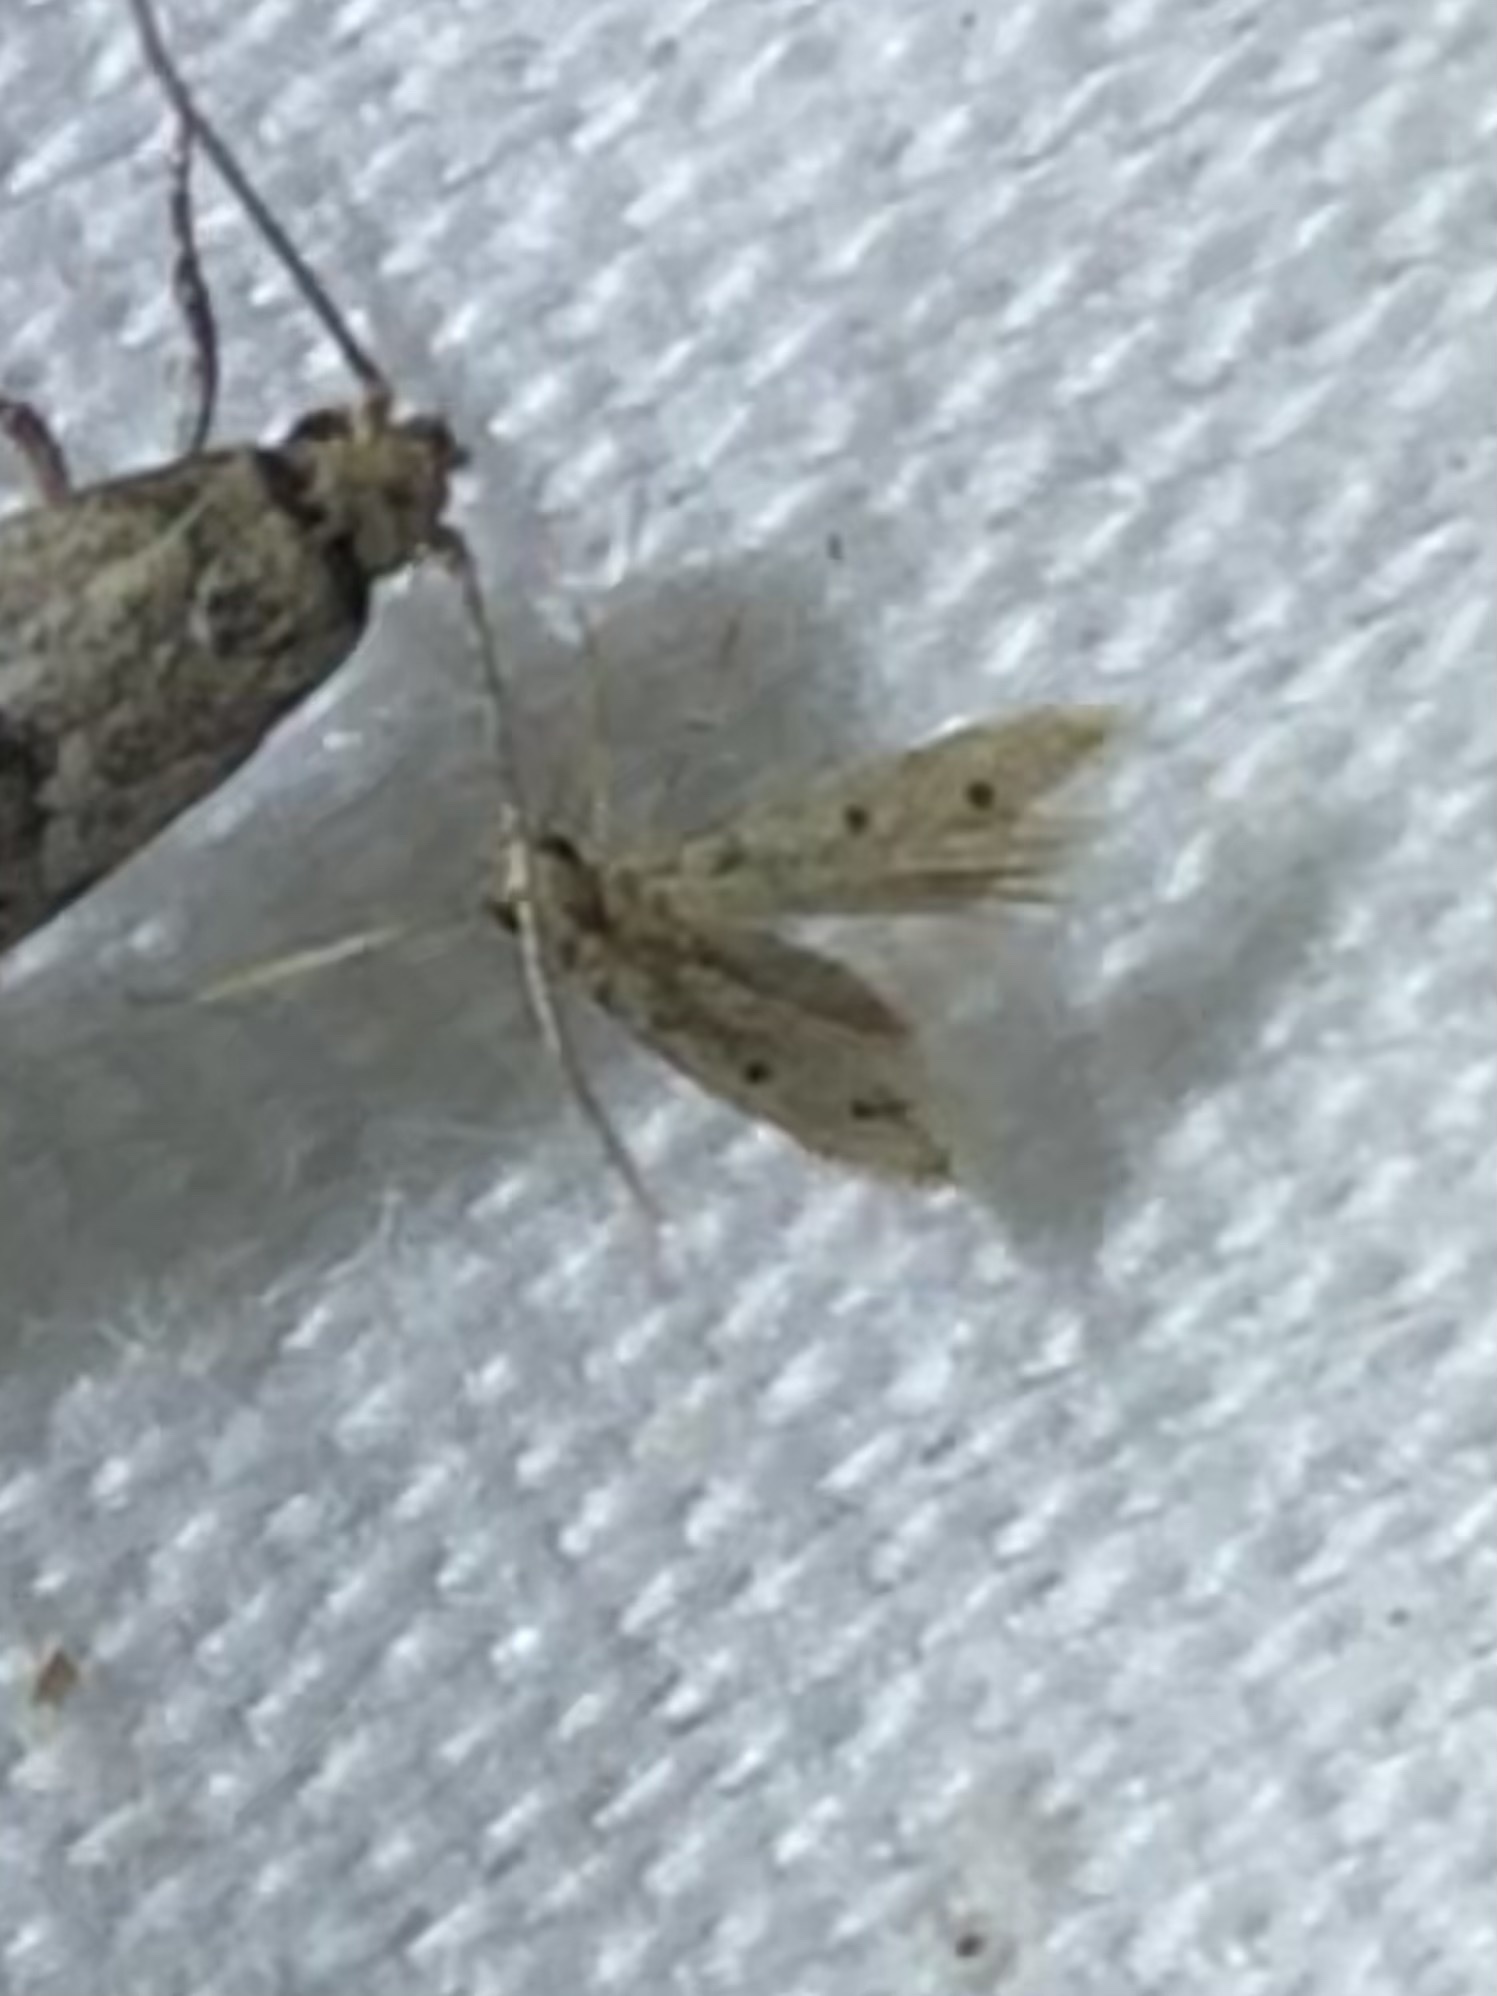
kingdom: Animalia
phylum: Arthropoda
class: Insecta
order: Lepidoptera
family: Gelechiidae
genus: Numata
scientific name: Numata bipunctella
